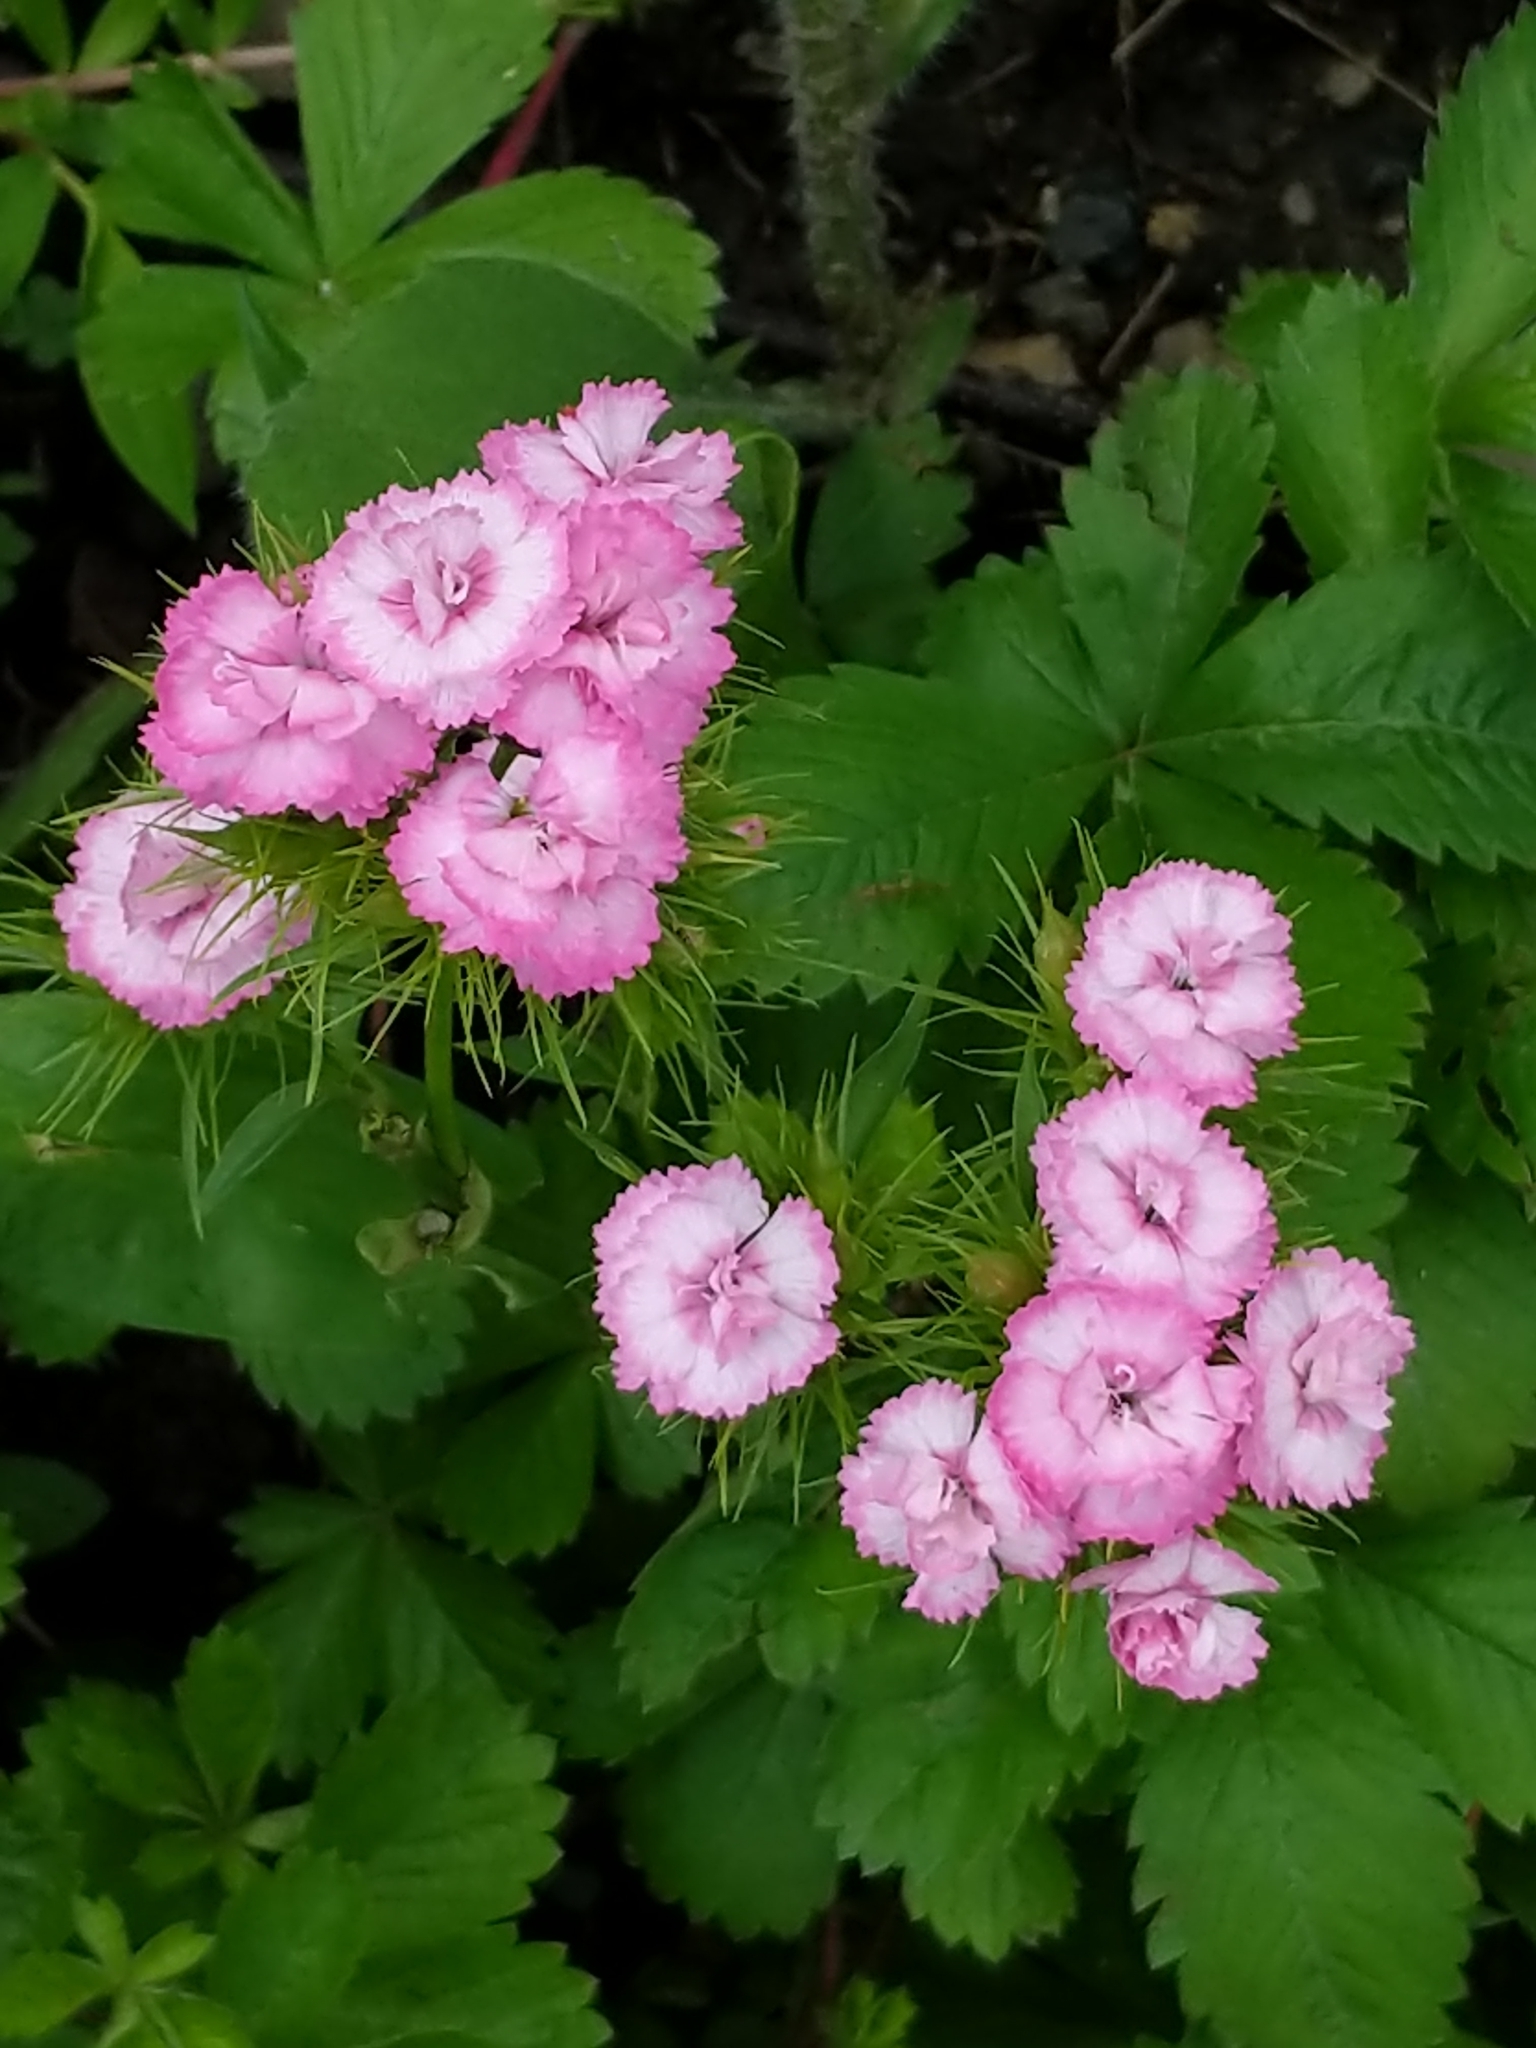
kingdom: Plantae
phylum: Tracheophyta
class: Magnoliopsida
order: Caryophyllales
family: Caryophyllaceae
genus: Dianthus
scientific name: Dianthus barbatus
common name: Sweet-william
